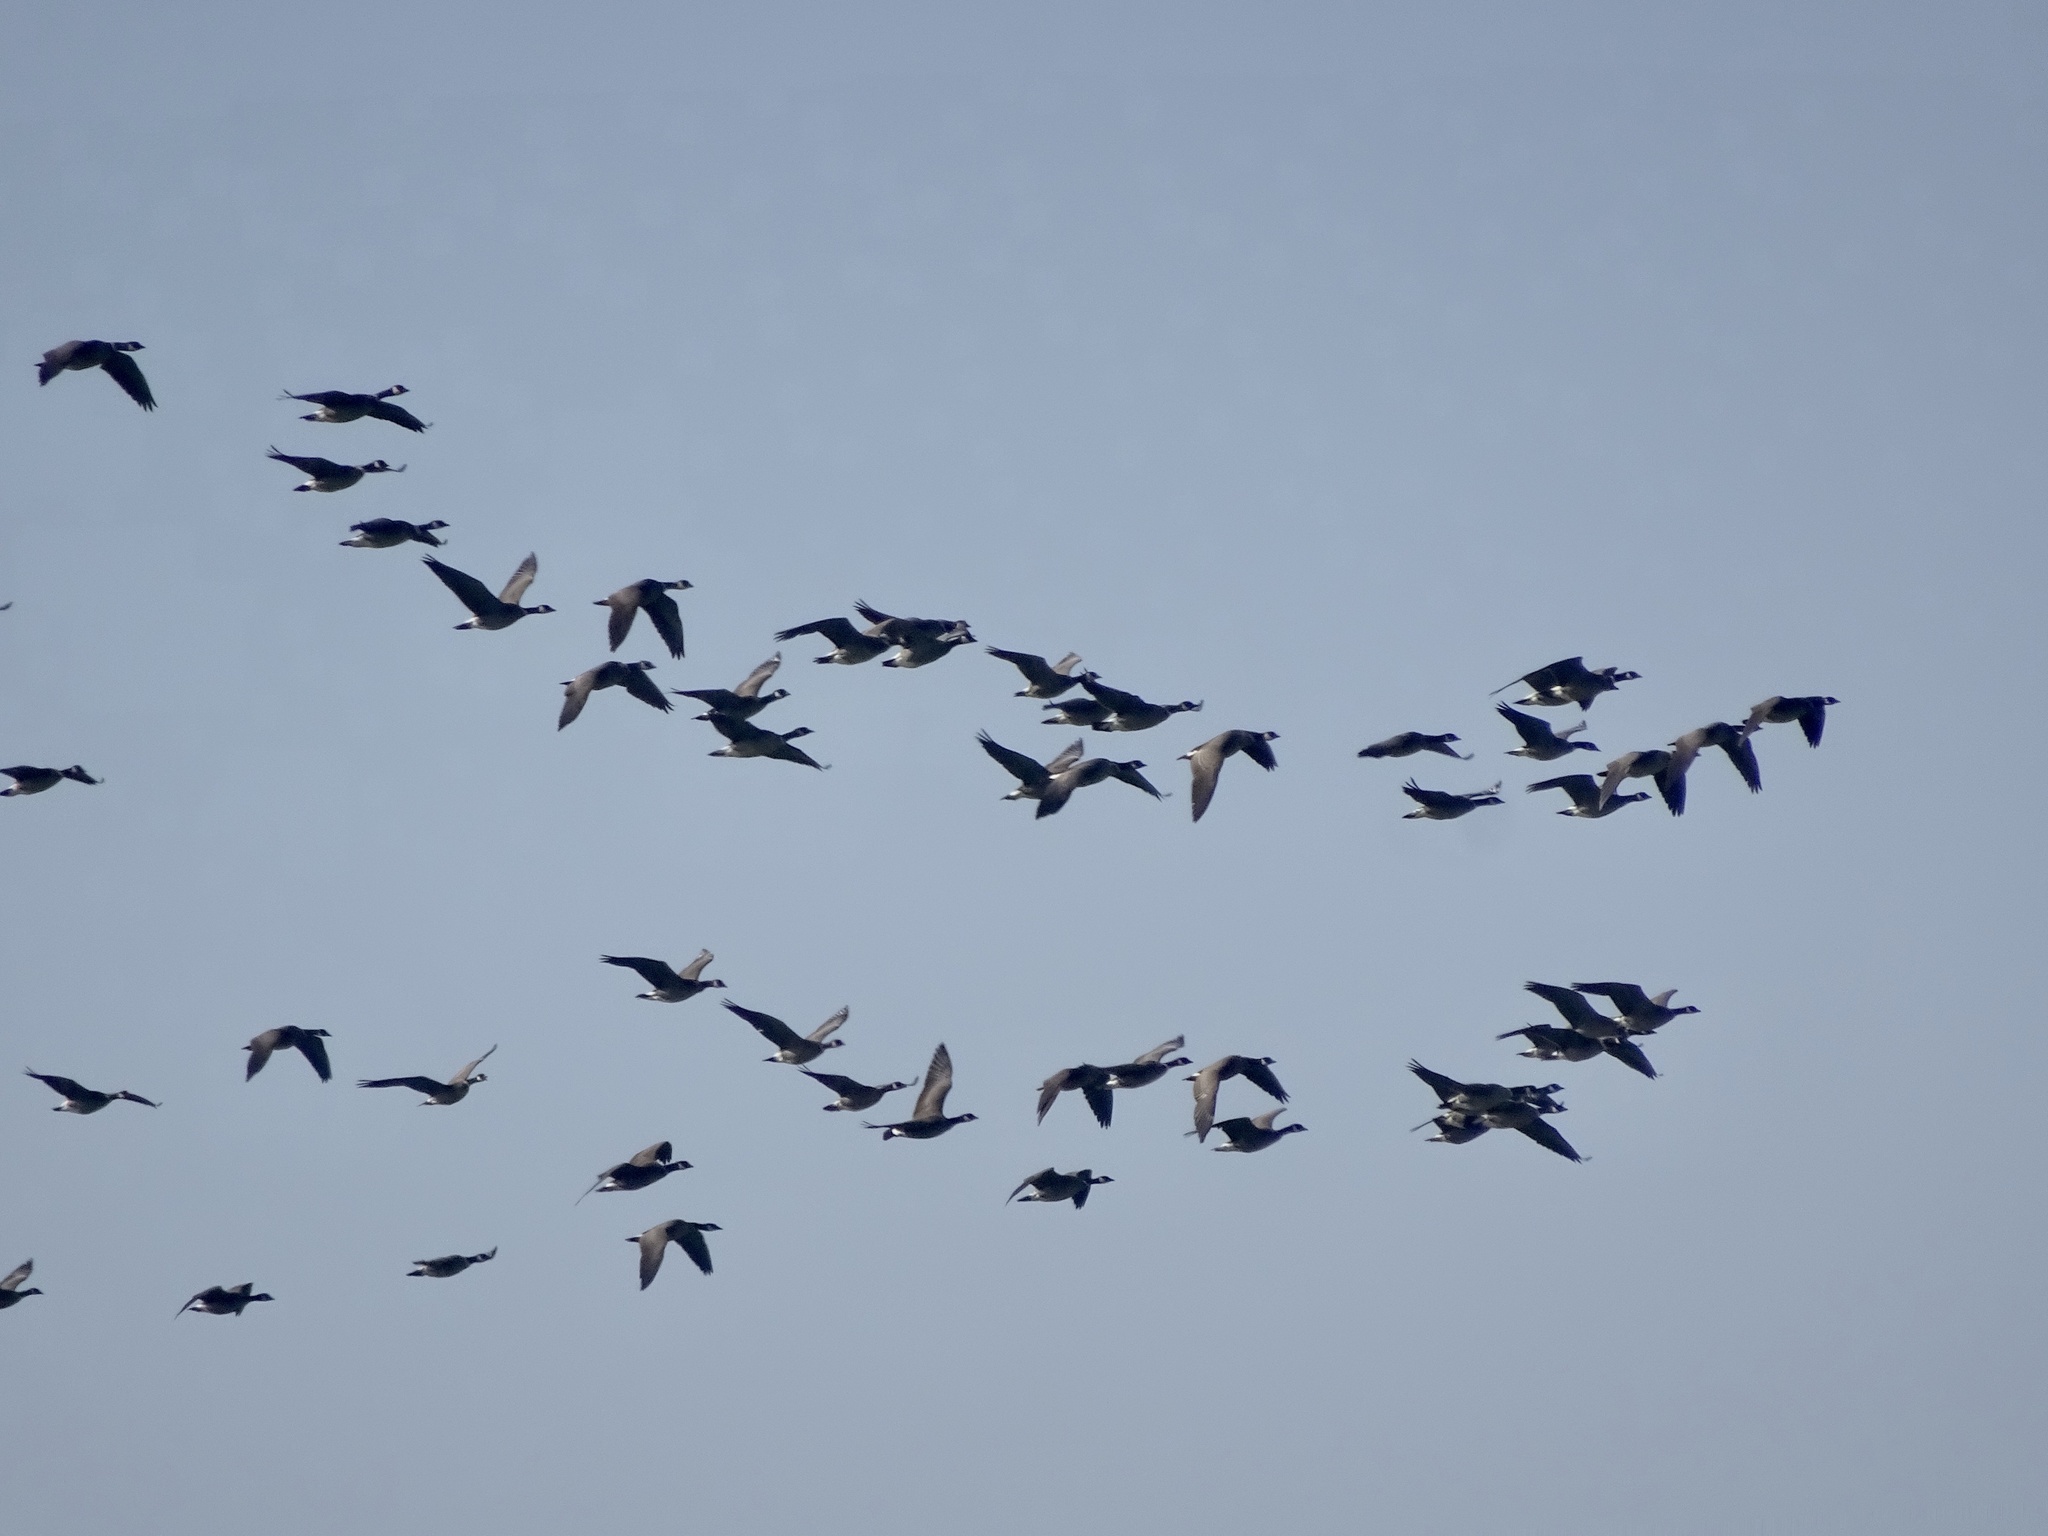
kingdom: Animalia
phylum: Chordata
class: Aves
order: Anseriformes
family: Anatidae
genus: Branta
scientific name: Branta hutchinsii
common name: Cackling goose
